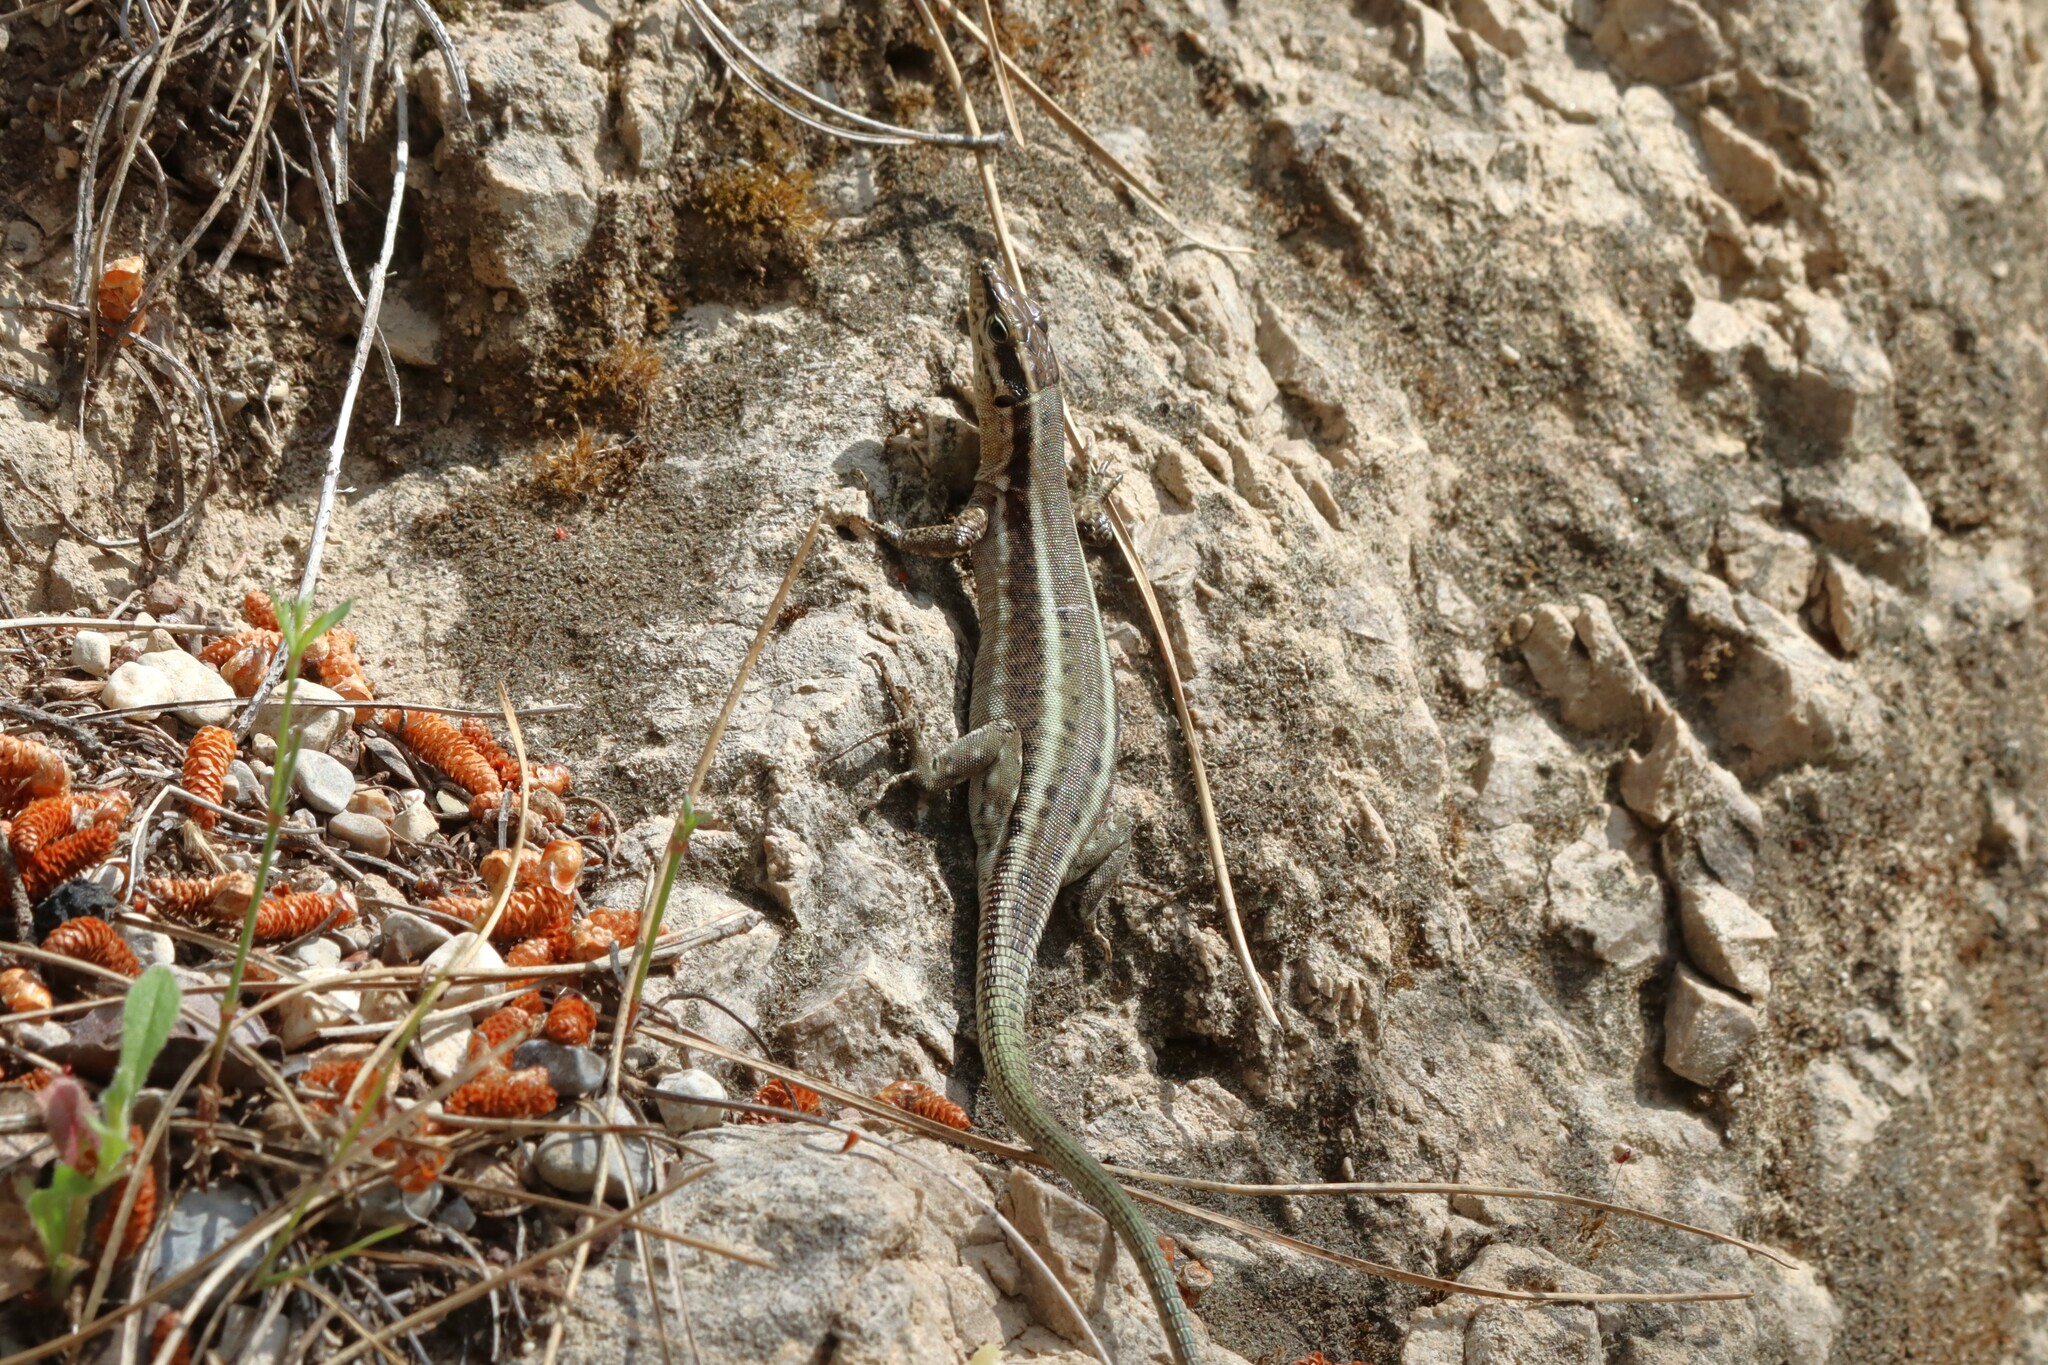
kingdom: Animalia
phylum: Chordata
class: Squamata
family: Lacertidae
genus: Anatololacerta
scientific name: Anatololacerta finikensis
